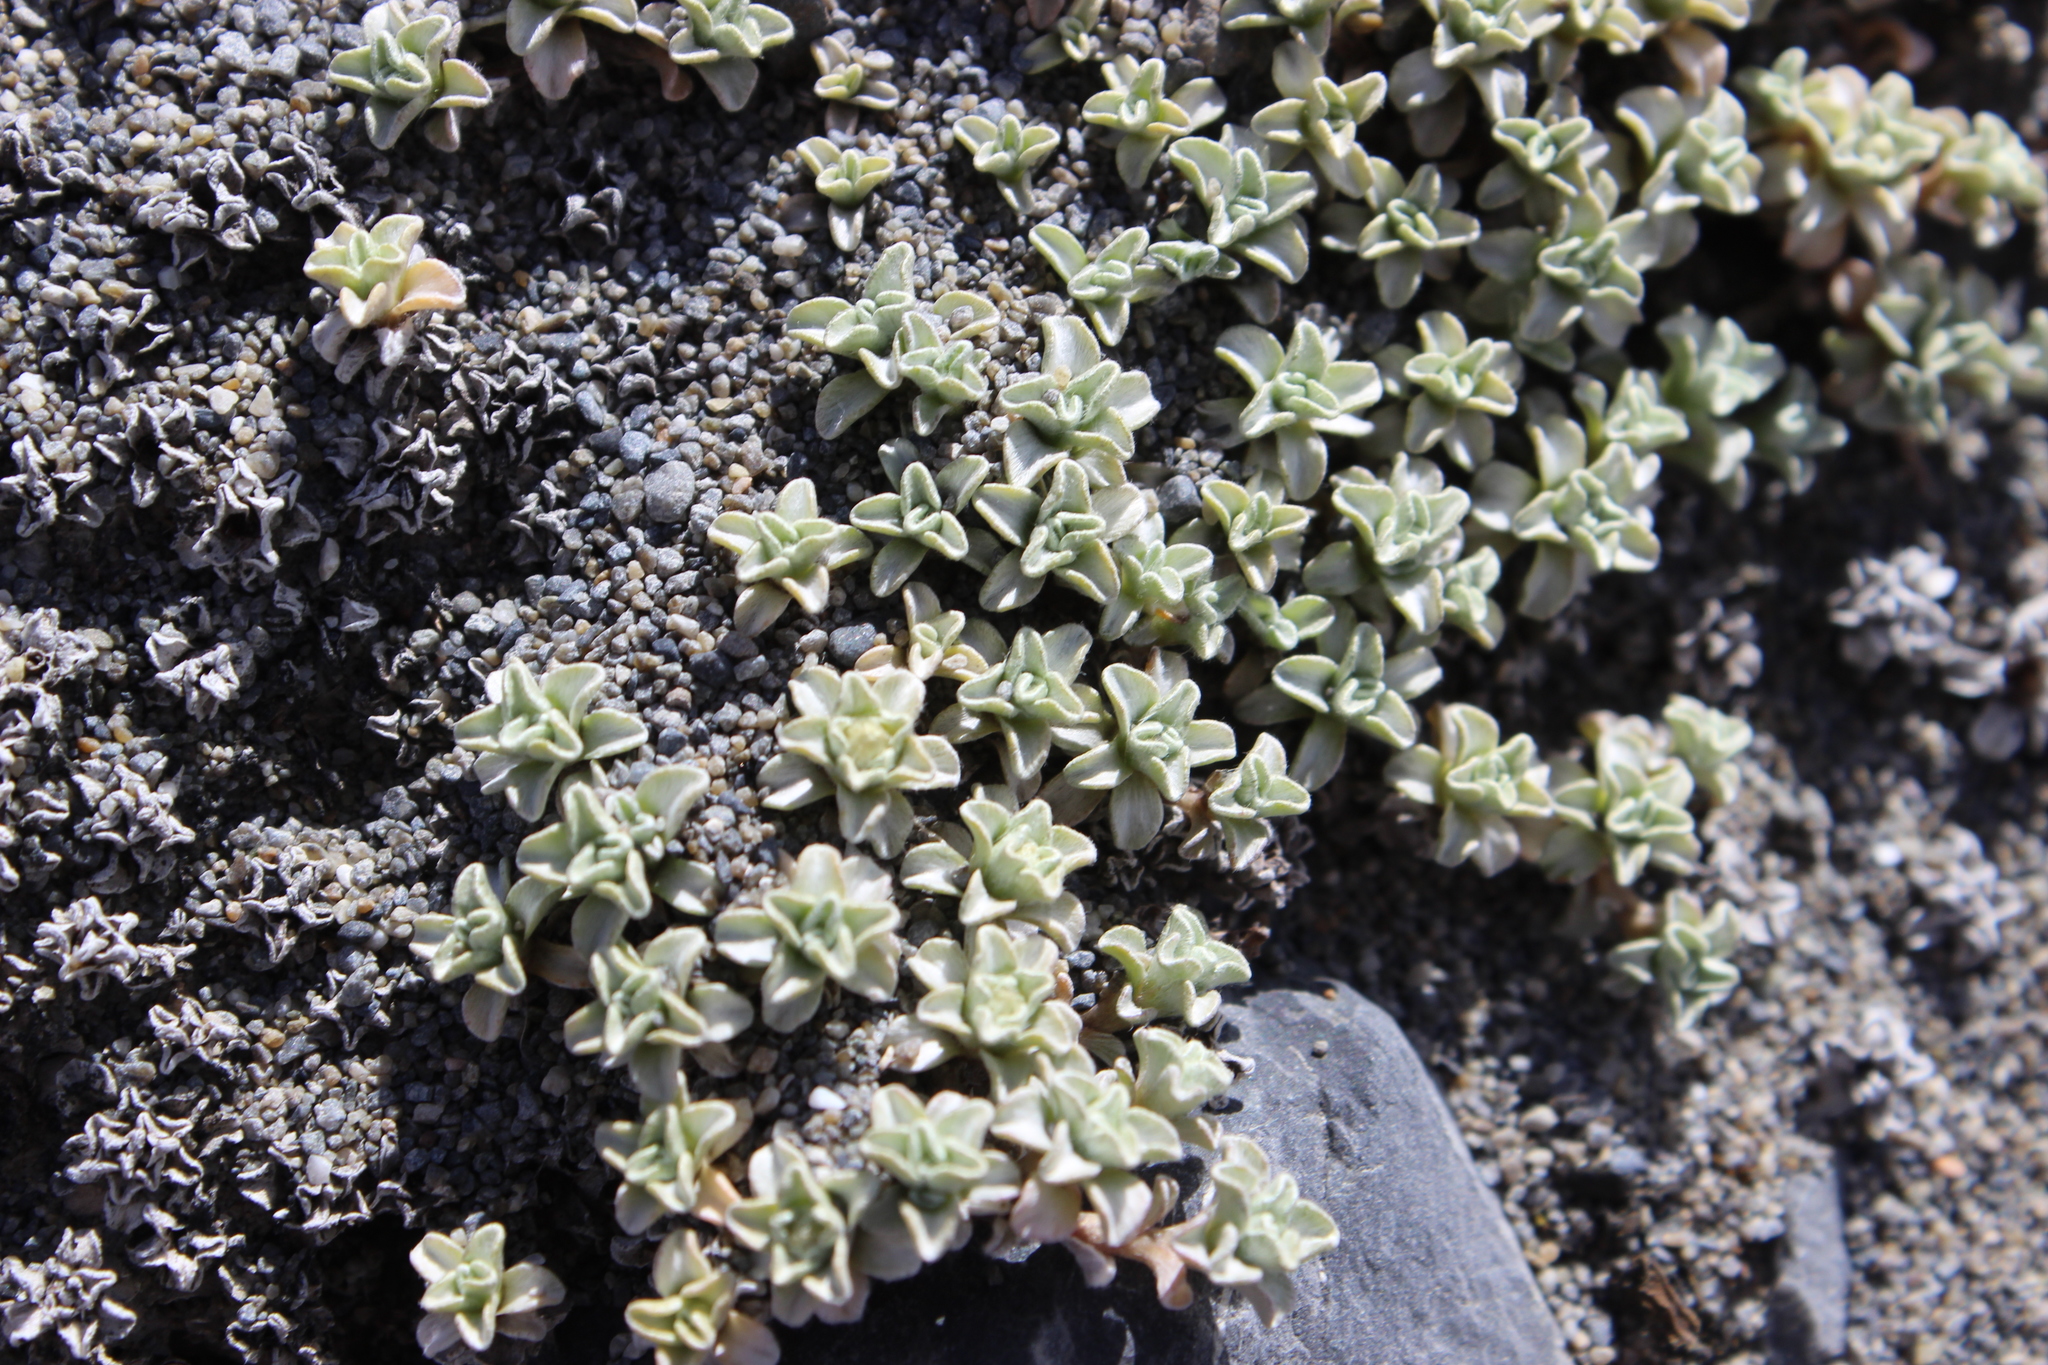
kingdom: Plantae
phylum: Tracheophyta
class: Magnoliopsida
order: Asterales
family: Asteraceae
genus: Raoulia
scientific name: Raoulia hookeri
